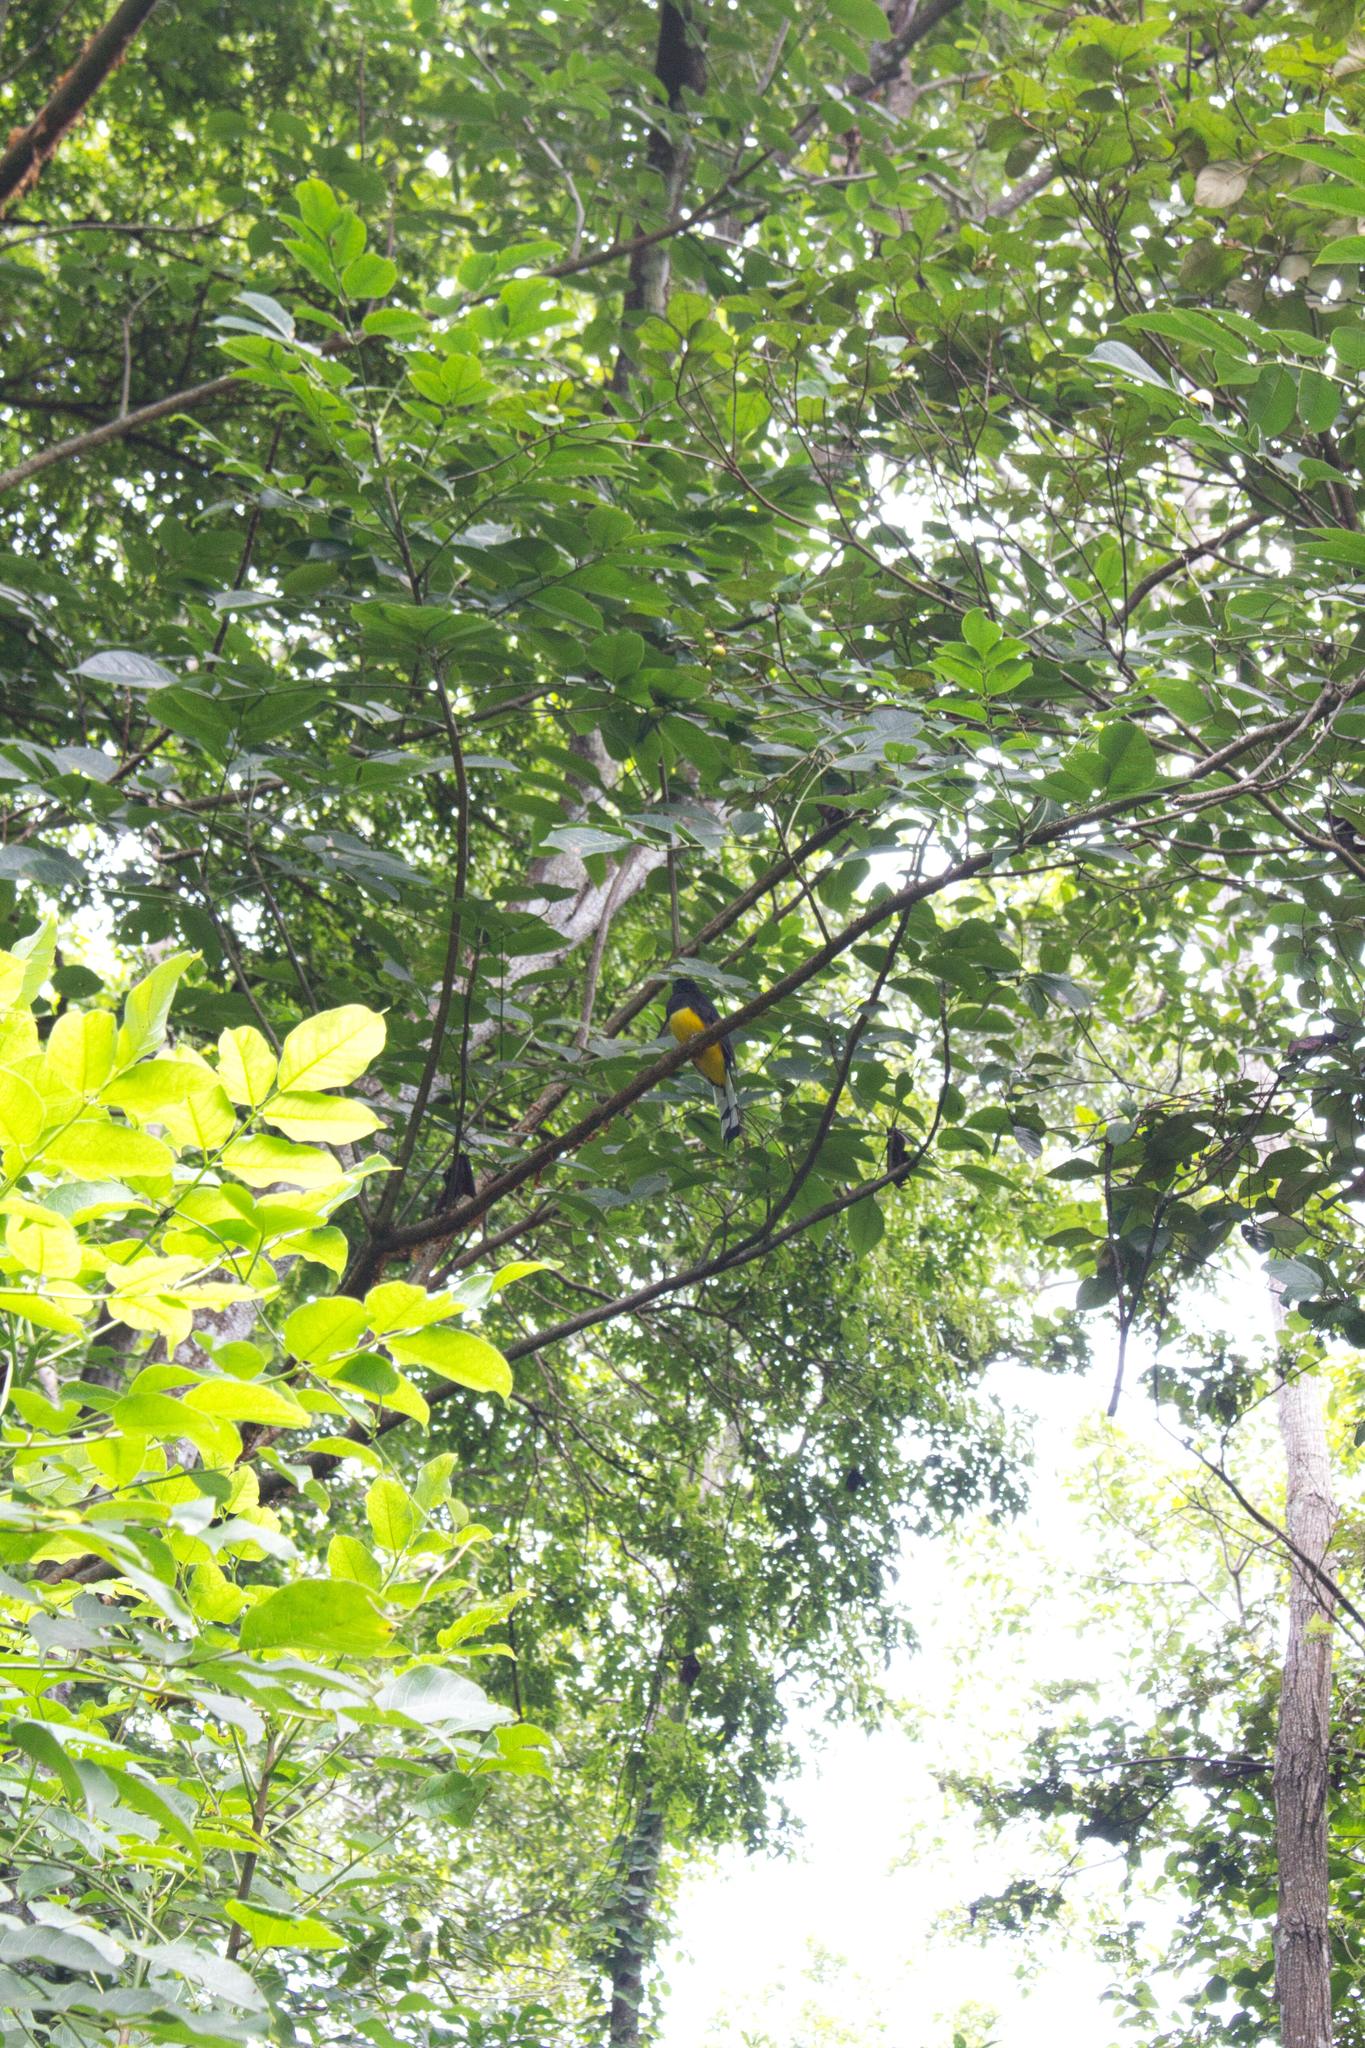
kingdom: Animalia
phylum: Chordata
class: Aves
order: Trogoniformes
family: Trogonidae
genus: Trogon
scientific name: Trogon melanocephalus
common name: Black-headed trogon
